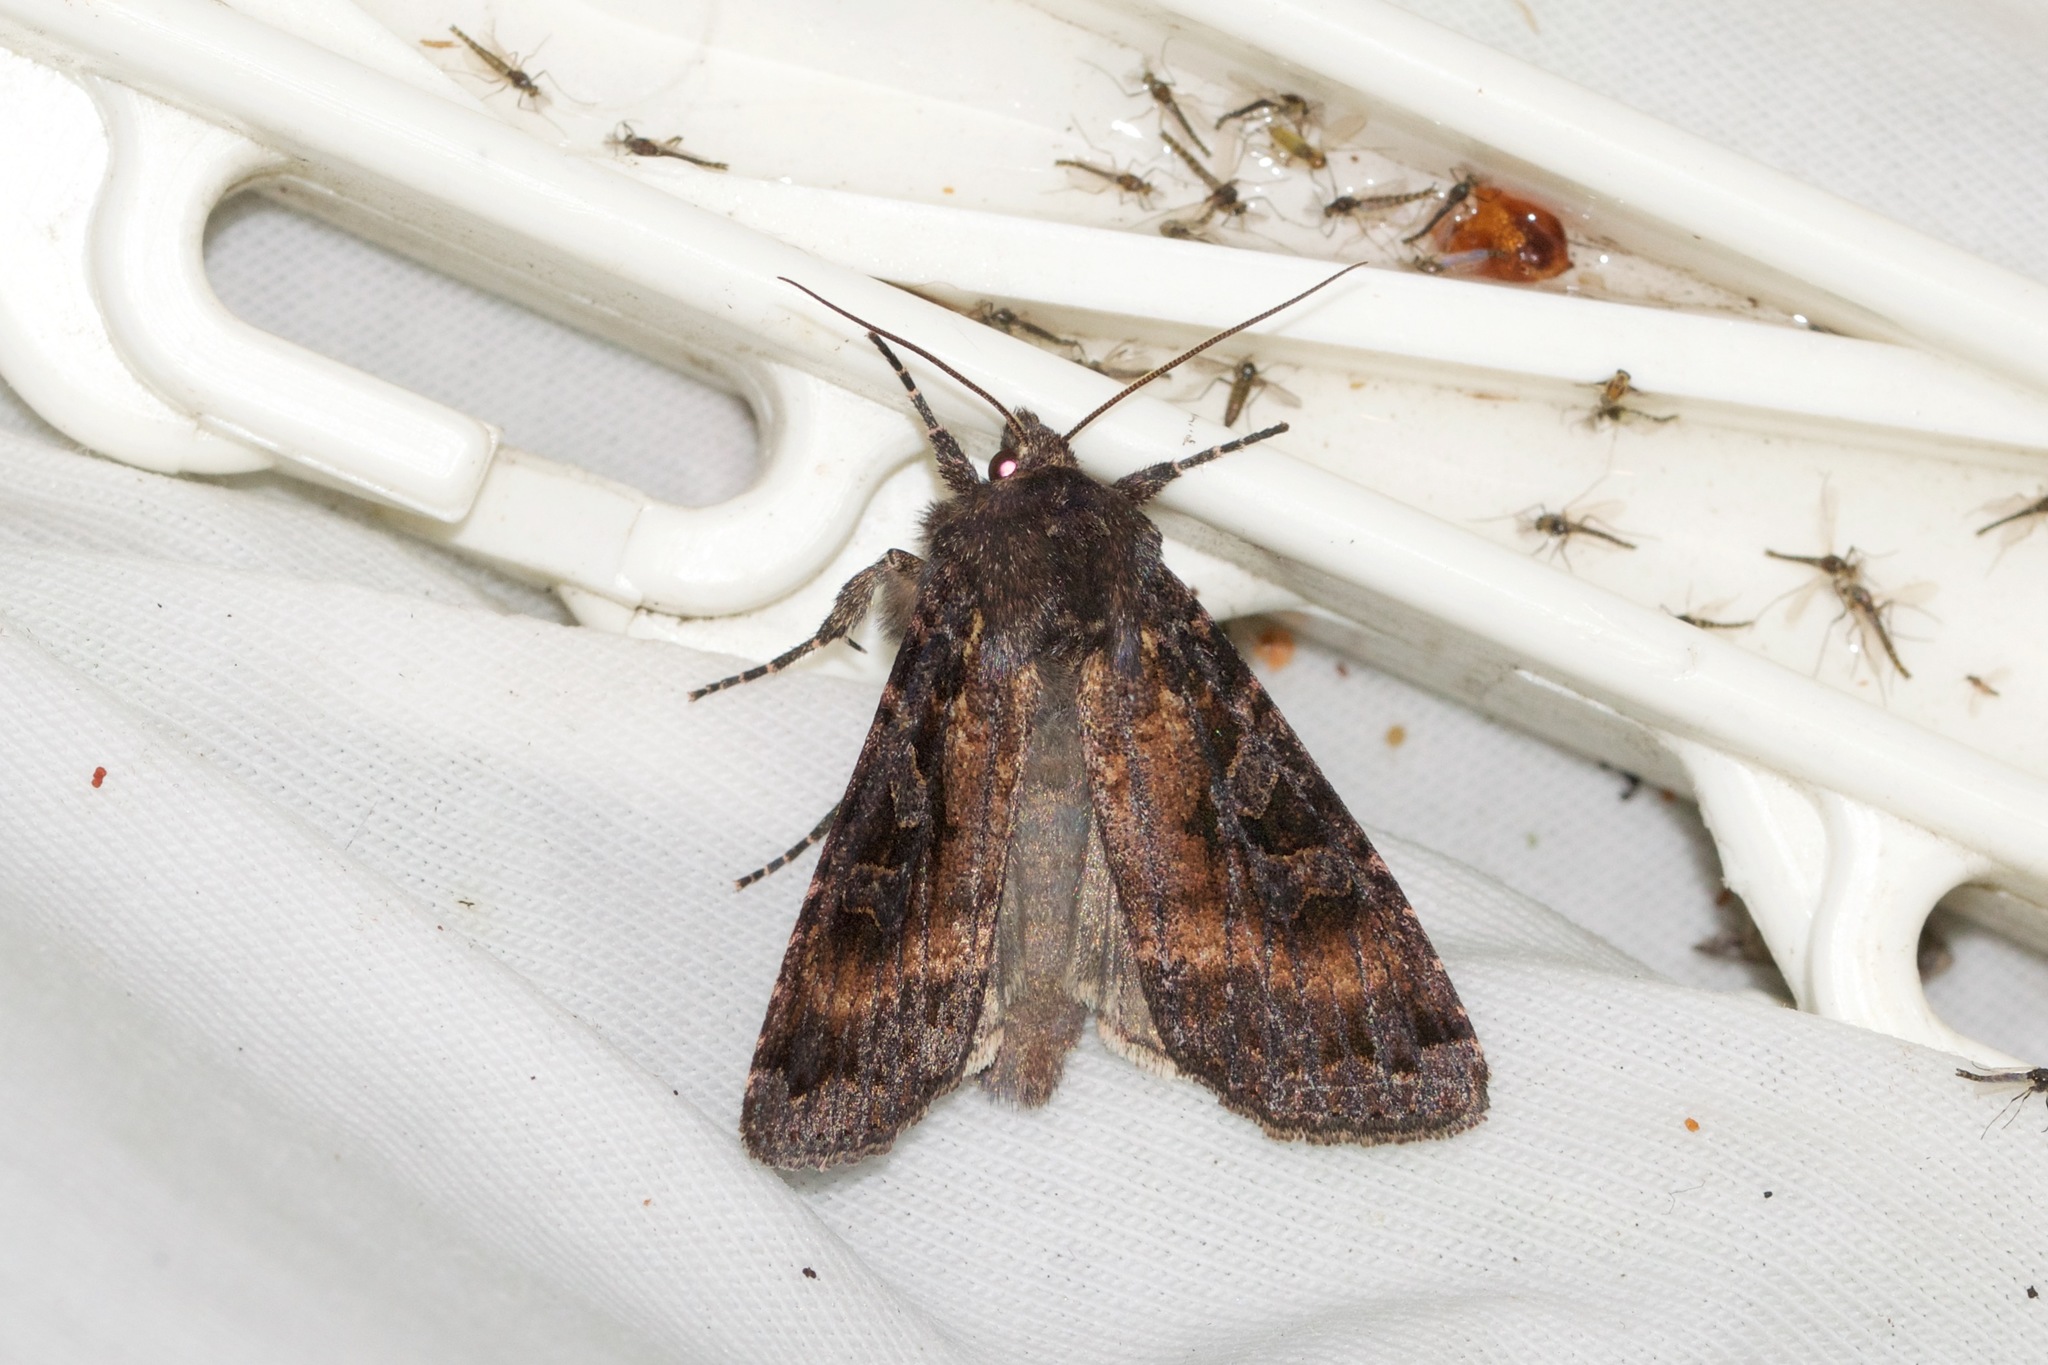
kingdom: Animalia
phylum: Arthropoda
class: Insecta
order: Lepidoptera
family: Noctuidae
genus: Eurois
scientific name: Eurois astricta
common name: Great brown dart
